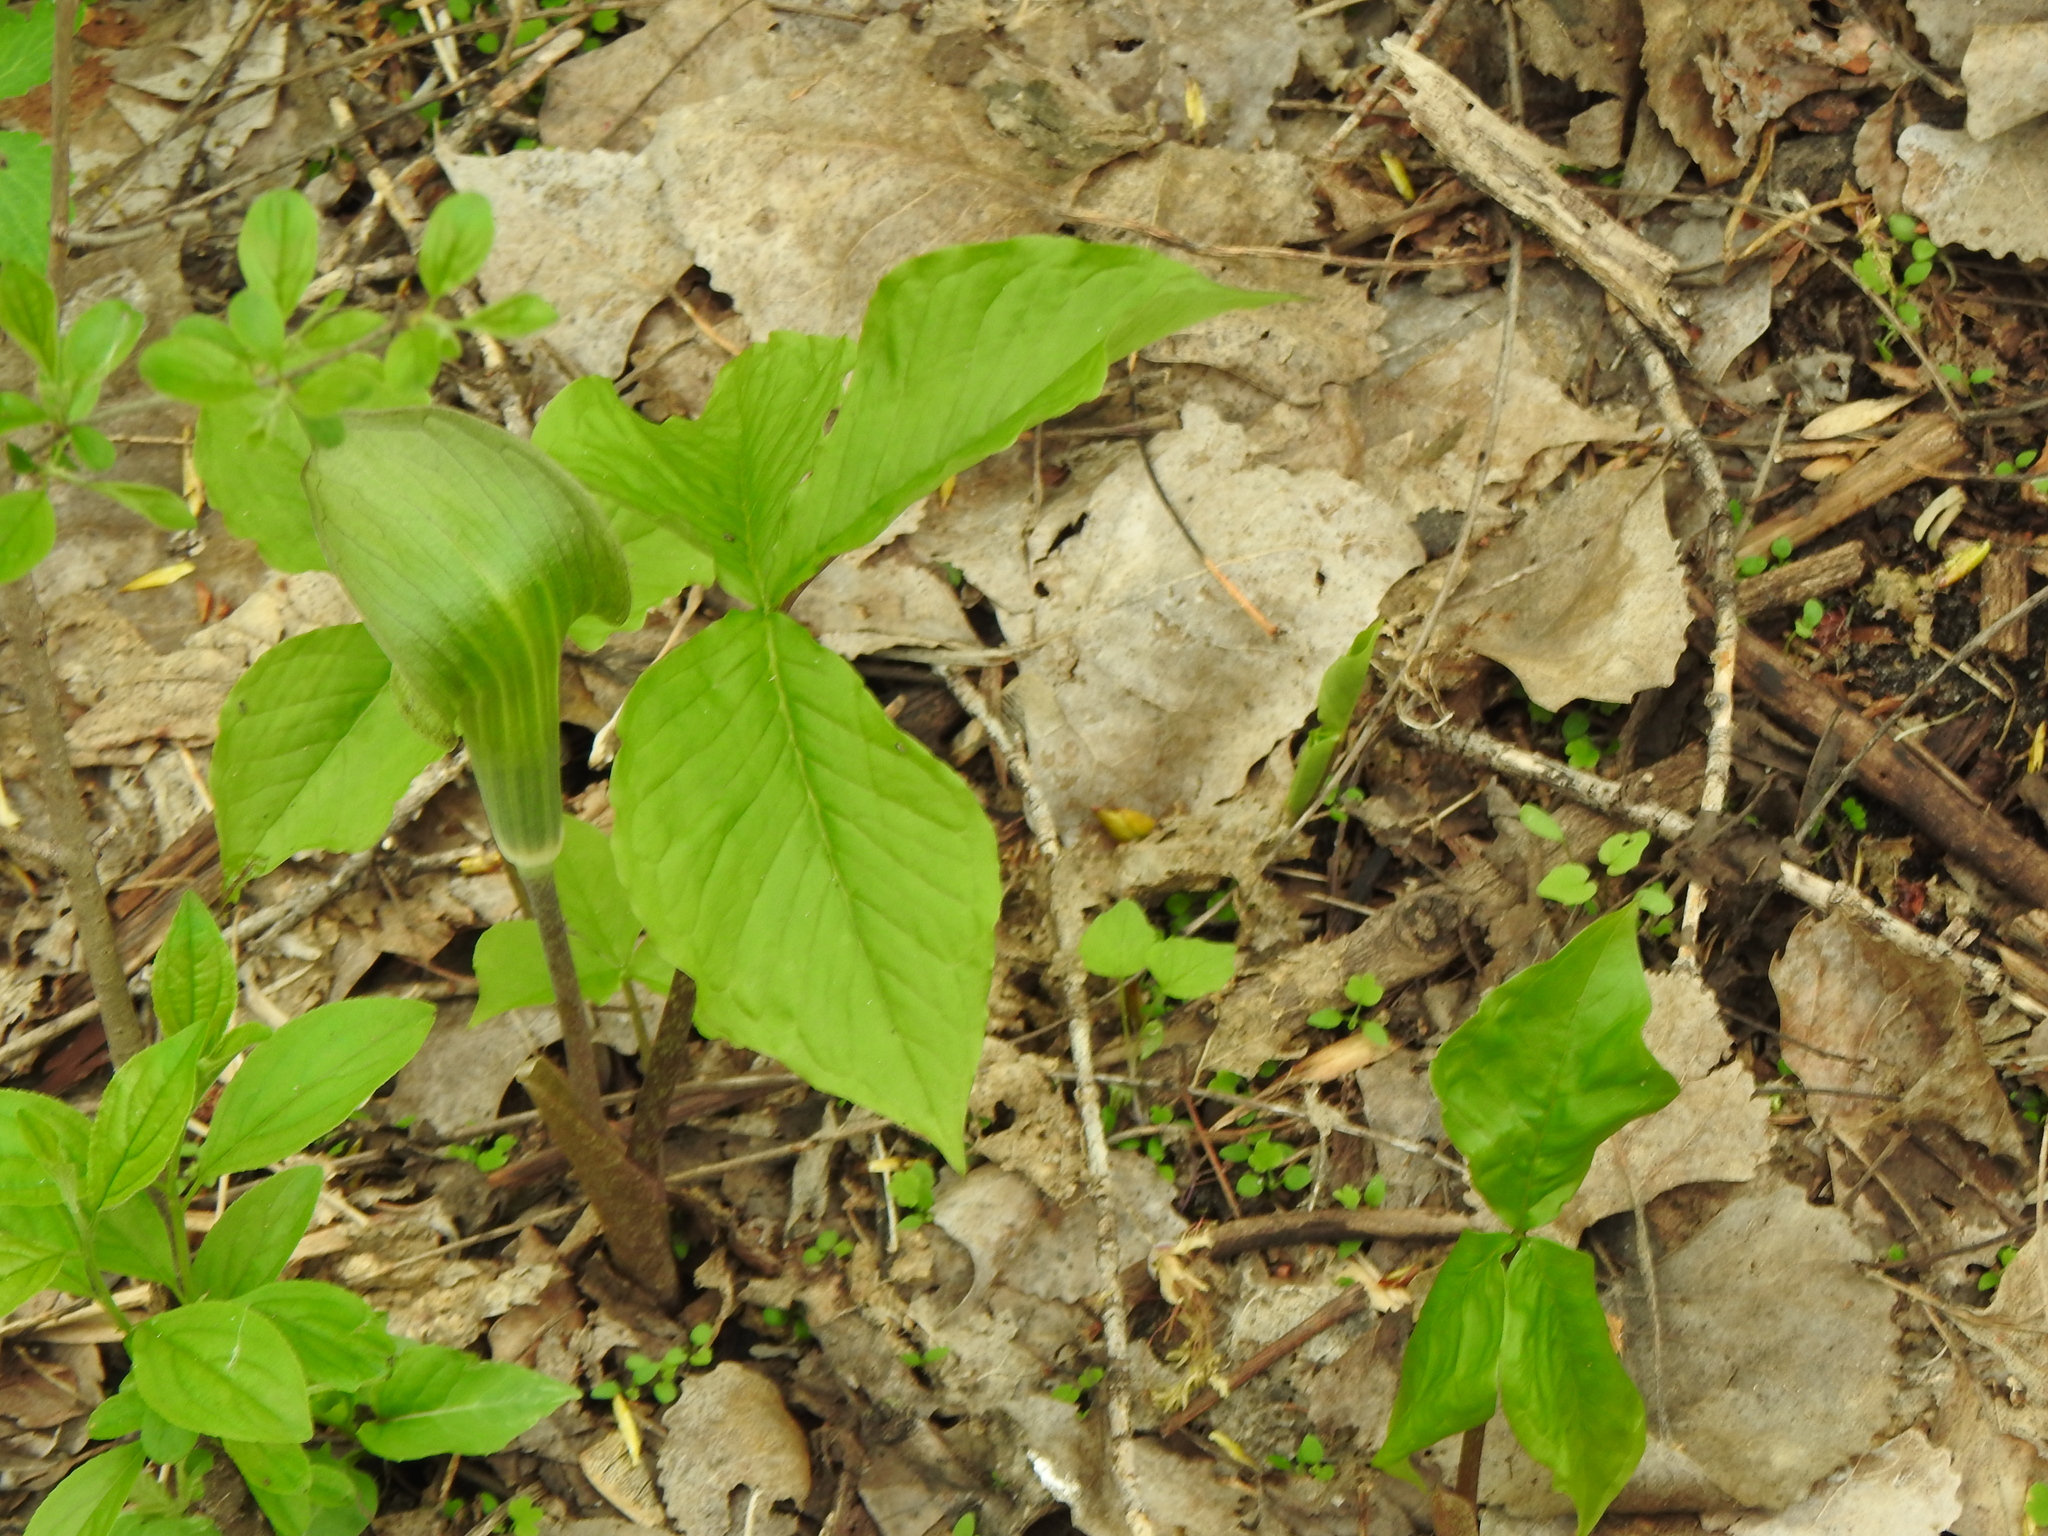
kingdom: Plantae
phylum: Tracheophyta
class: Liliopsida
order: Alismatales
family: Araceae
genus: Arisaema
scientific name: Arisaema triphyllum
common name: Jack-in-the-pulpit
